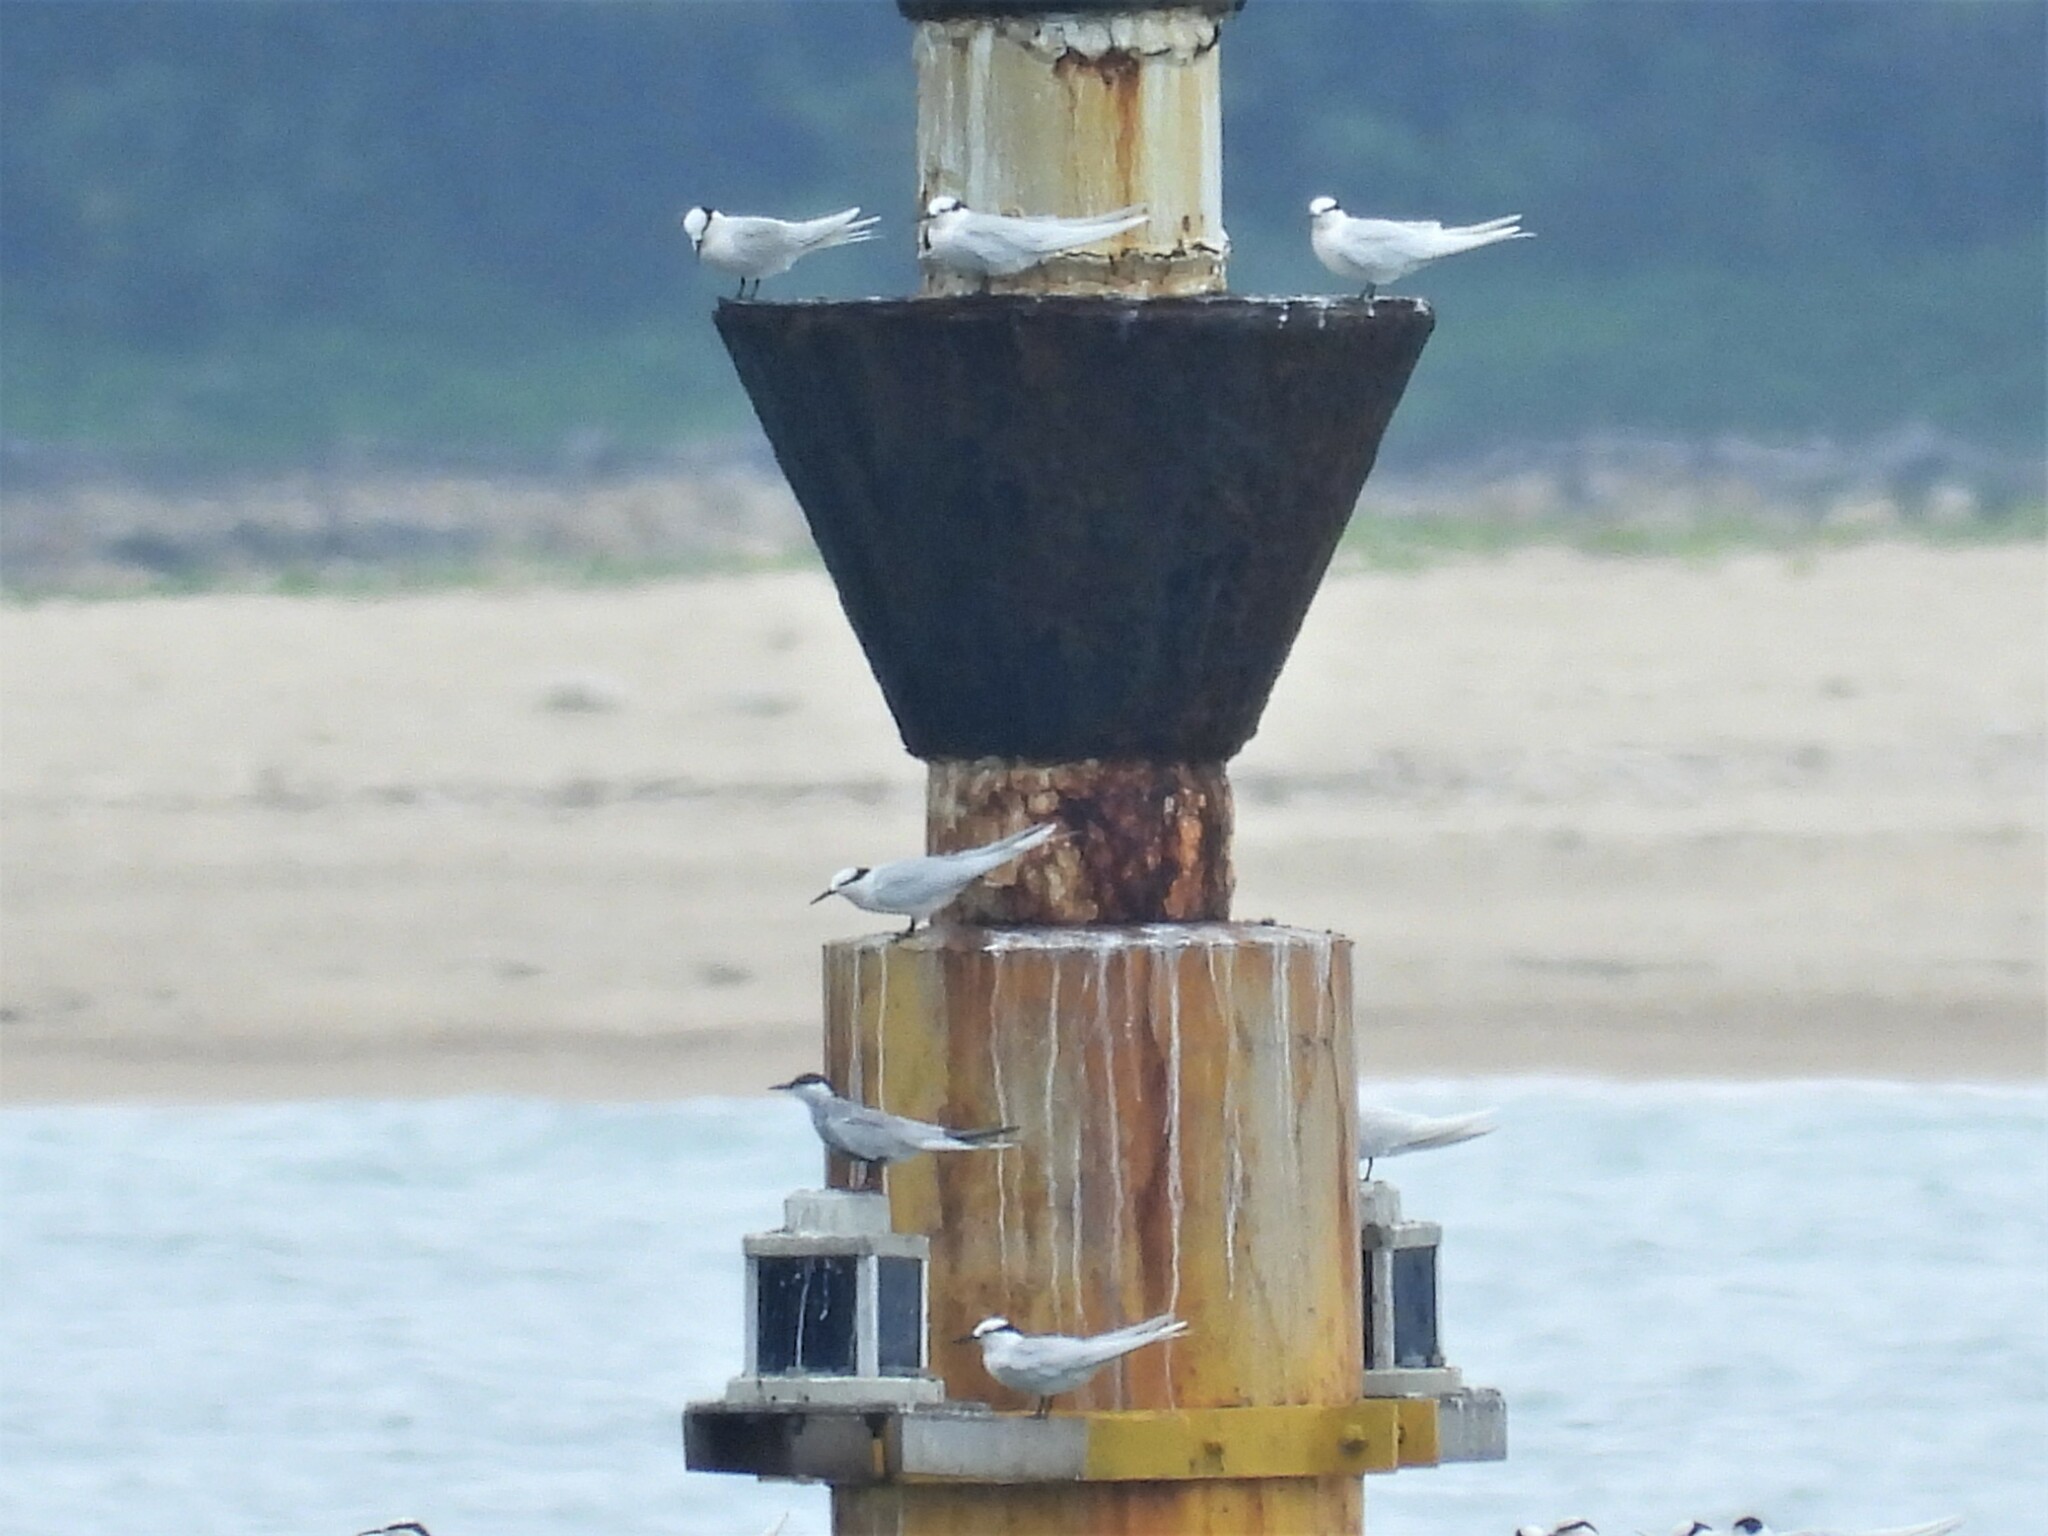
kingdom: Animalia
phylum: Chordata
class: Aves
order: Charadriiformes
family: Laridae
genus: Sterna
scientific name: Sterna sumatrana
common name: Black-naped tern
